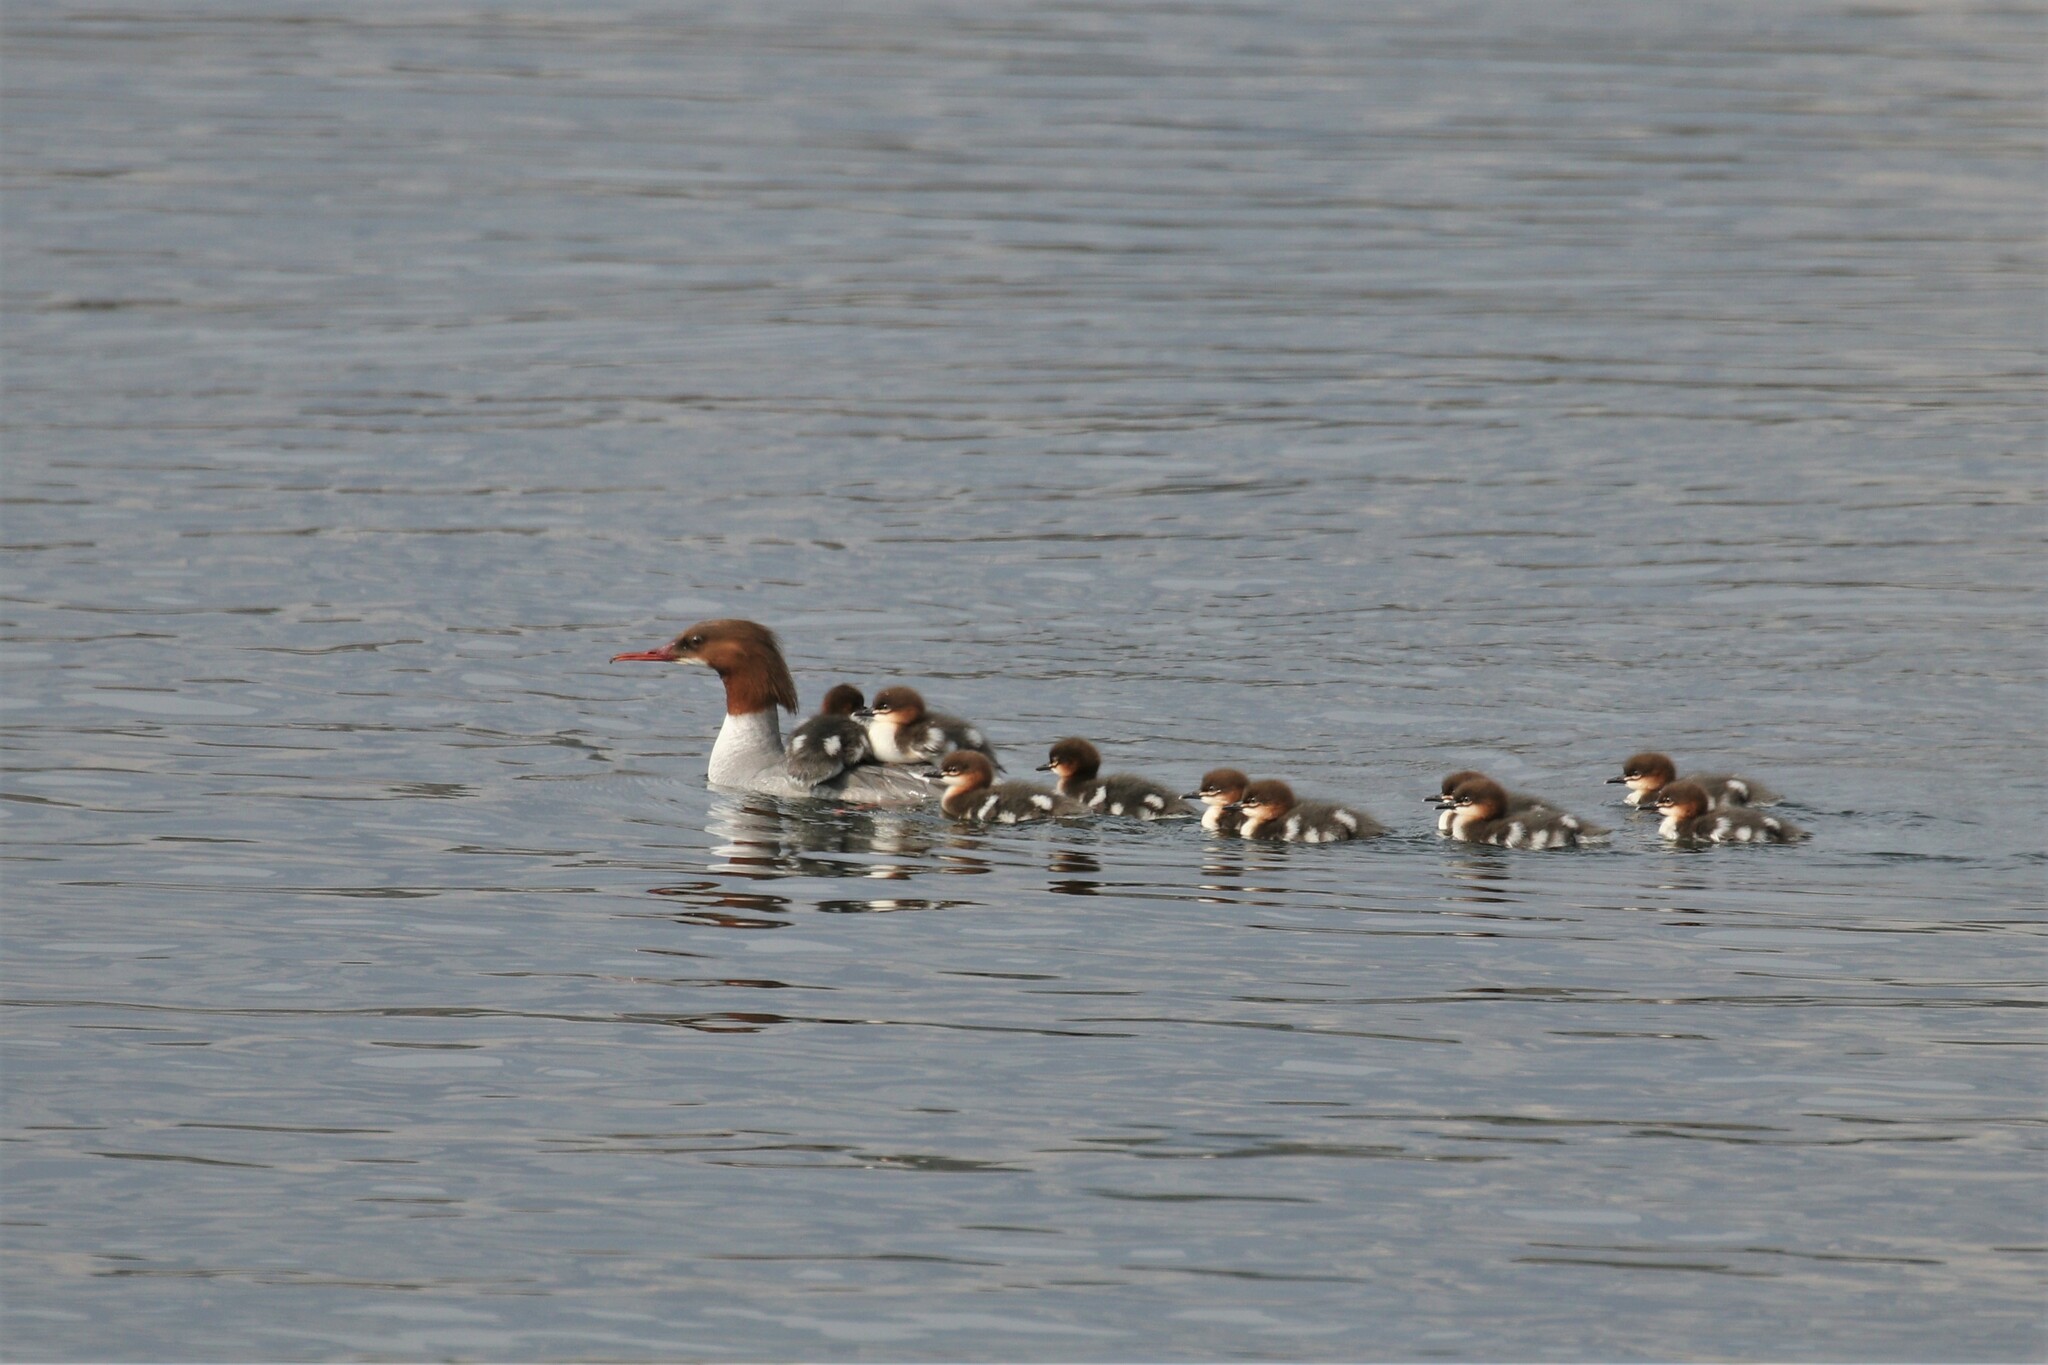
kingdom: Animalia
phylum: Chordata
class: Aves
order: Anseriformes
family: Anatidae
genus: Mergus
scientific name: Mergus merganser
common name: Common merganser
